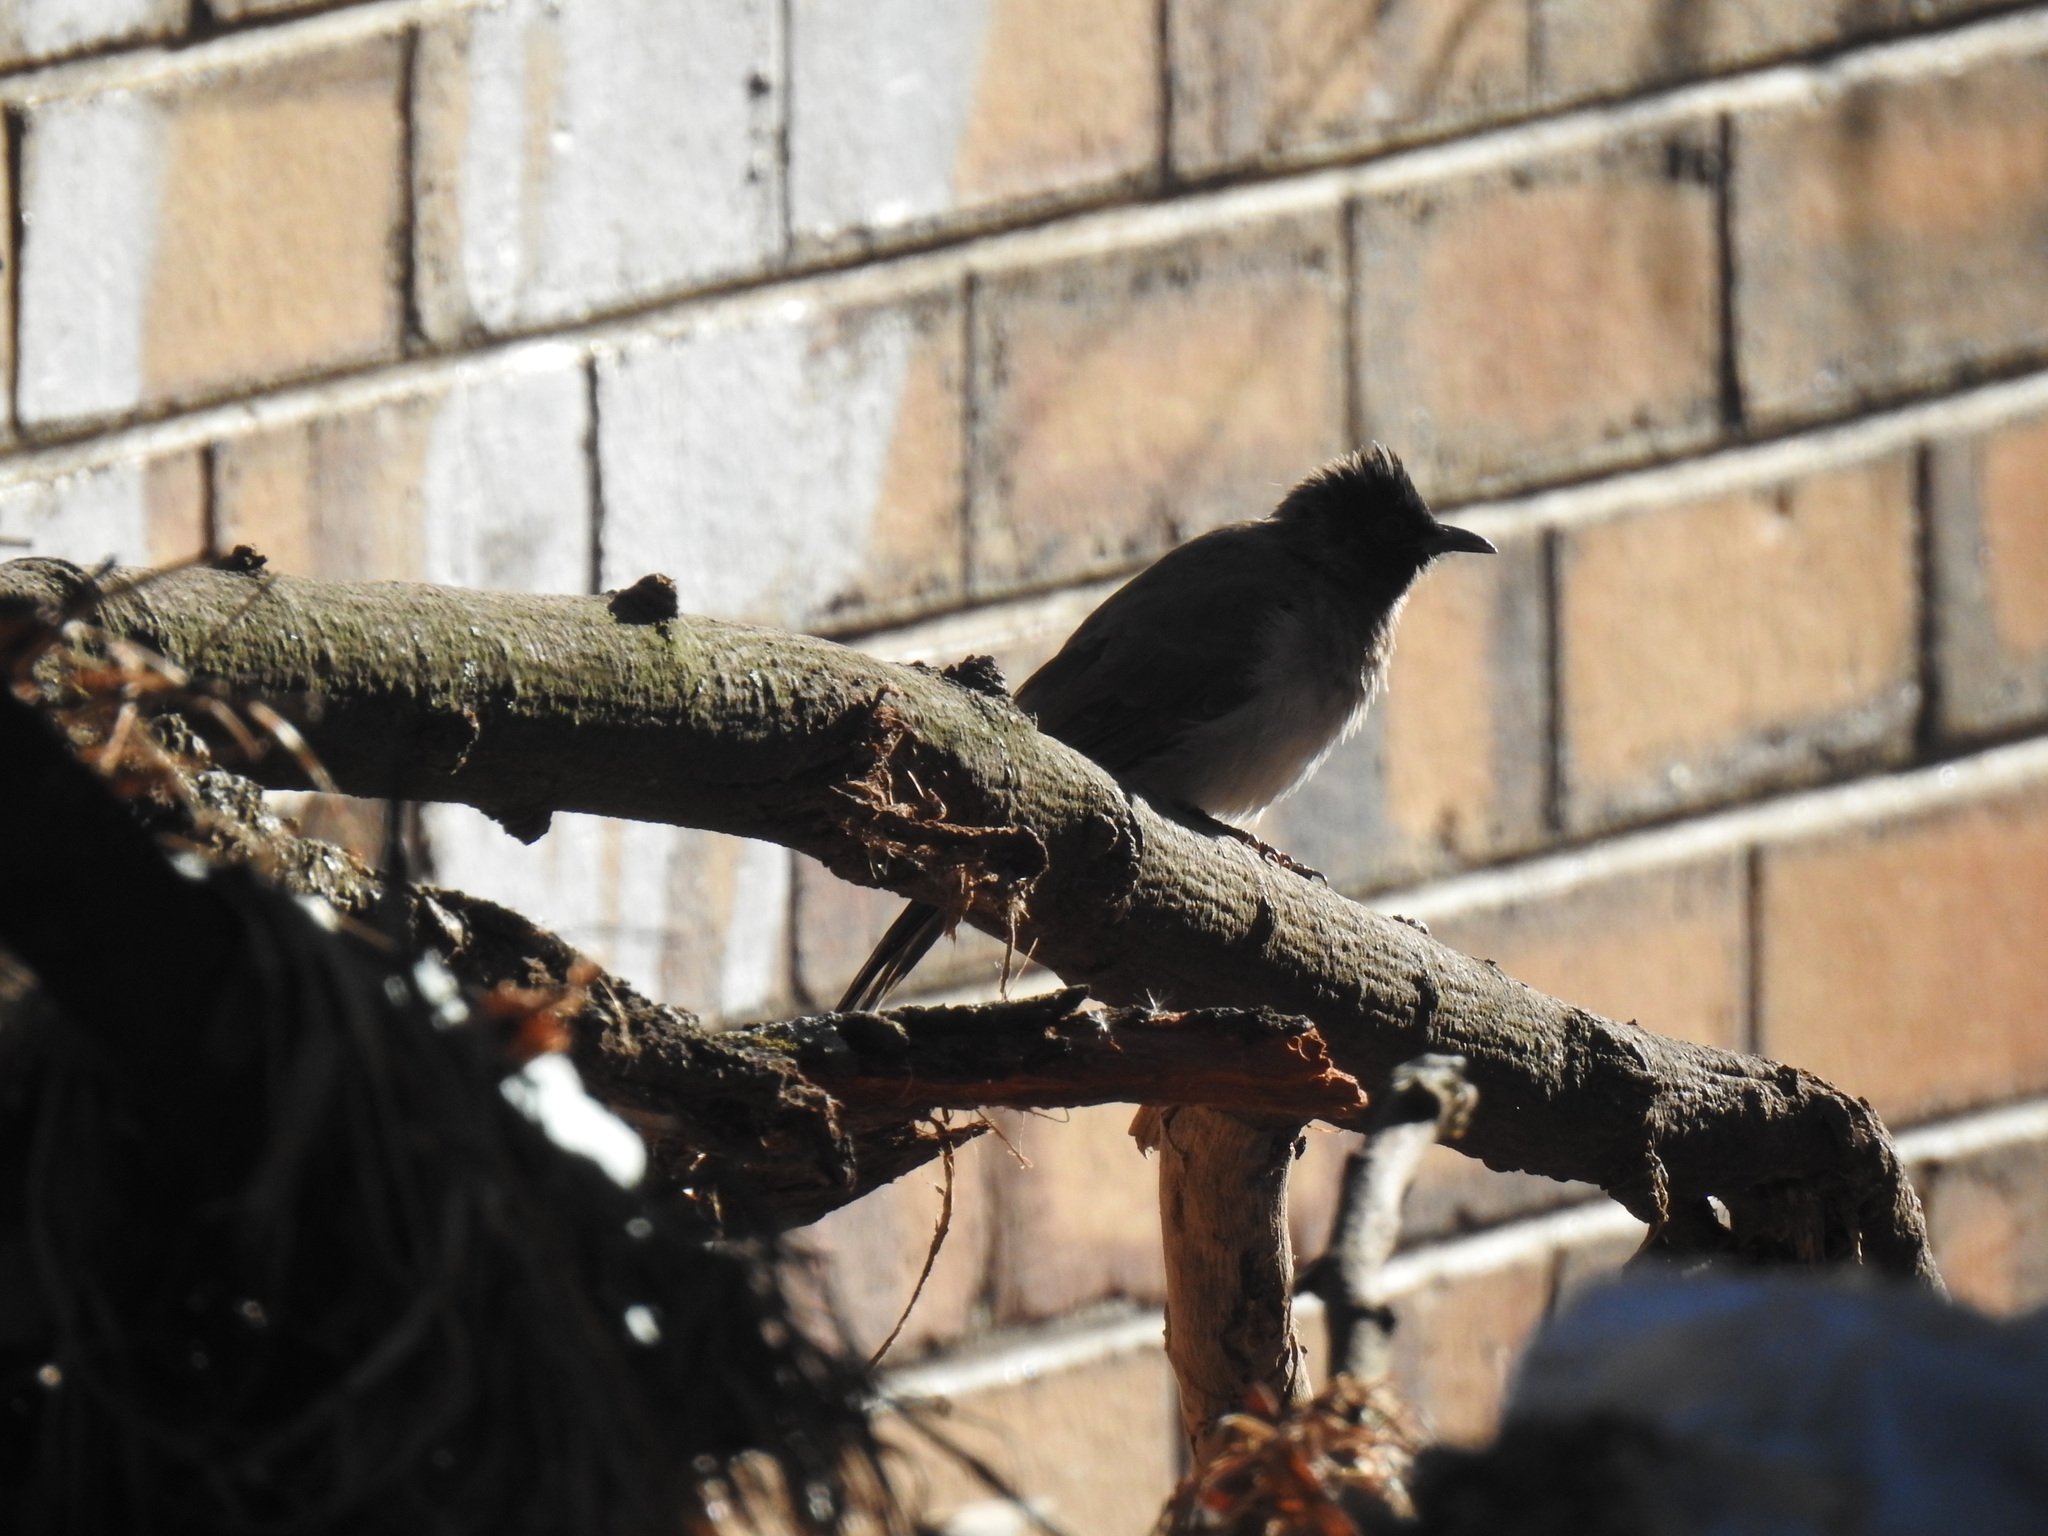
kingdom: Animalia
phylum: Chordata
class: Aves
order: Passeriformes
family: Pycnonotidae
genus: Pycnonotus
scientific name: Pycnonotus barbatus
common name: Common bulbul
